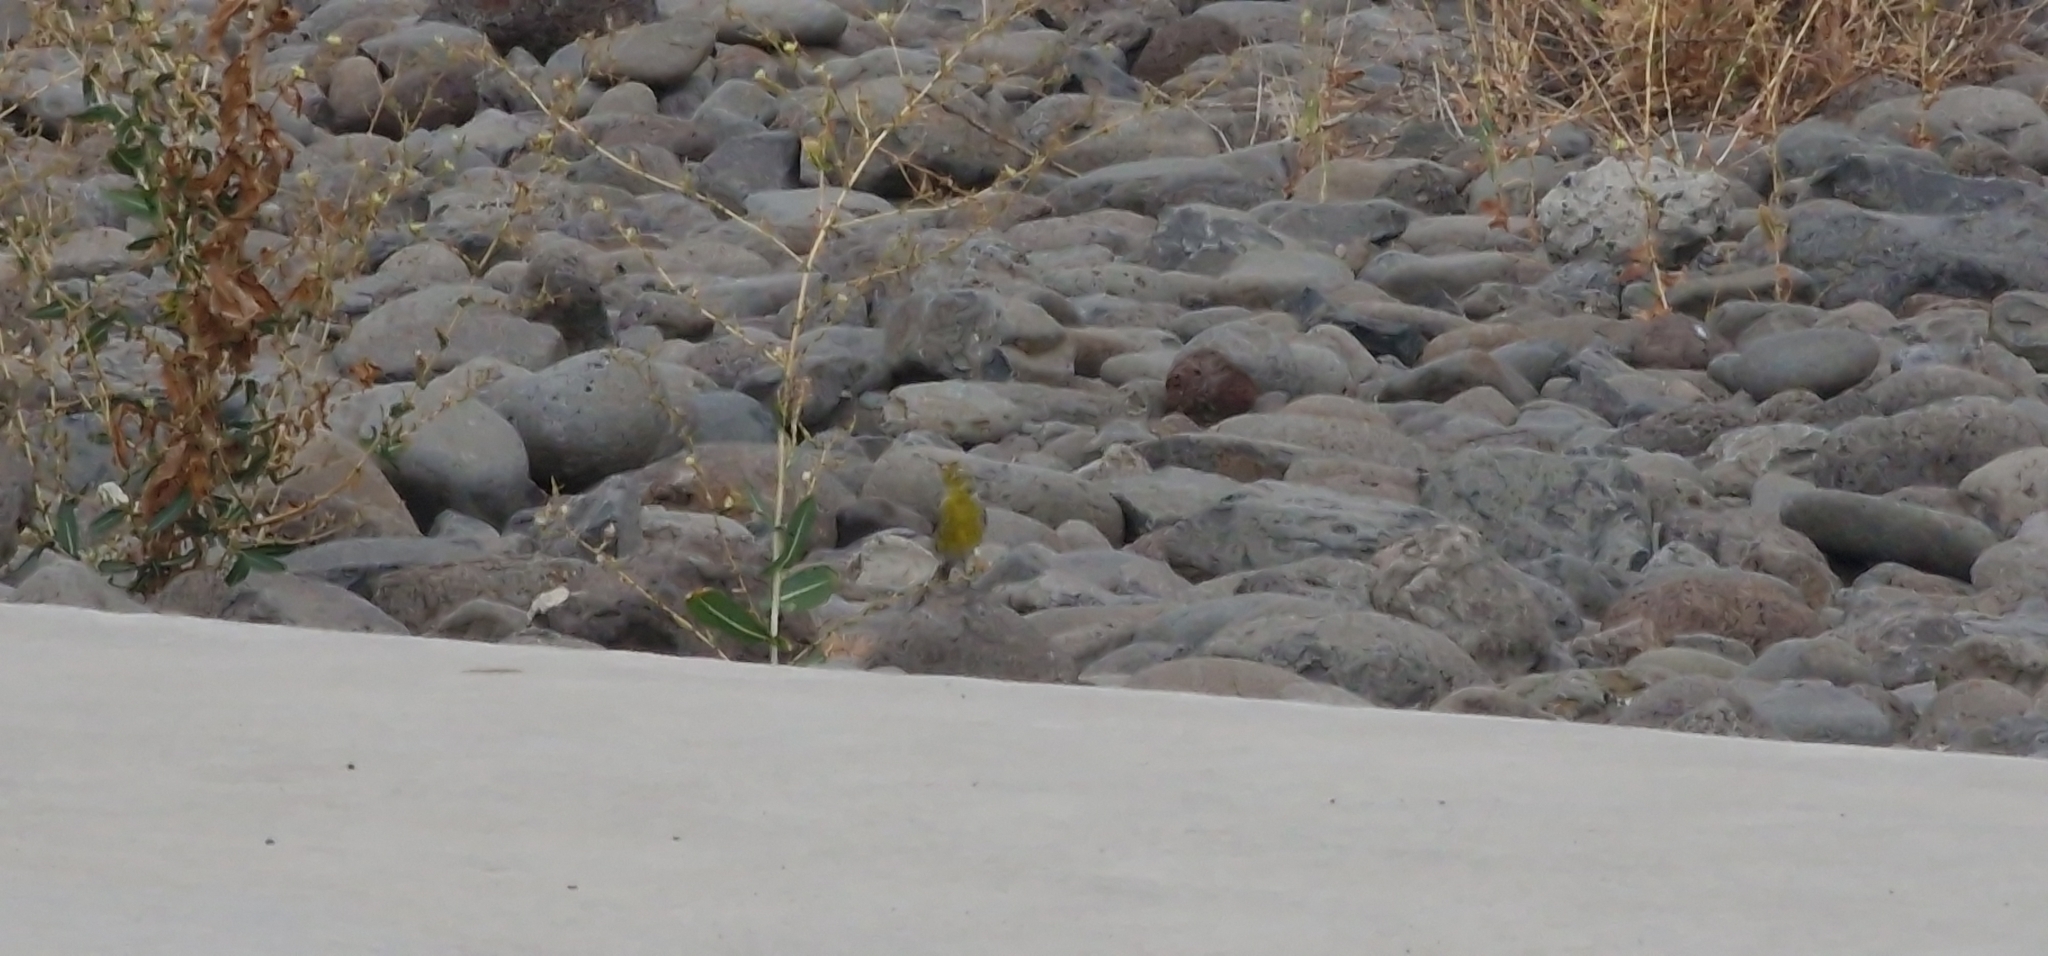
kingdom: Animalia
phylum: Chordata
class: Aves
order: Passeriformes
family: Fringillidae
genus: Serinus
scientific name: Serinus canaria
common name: Atlantic canary
